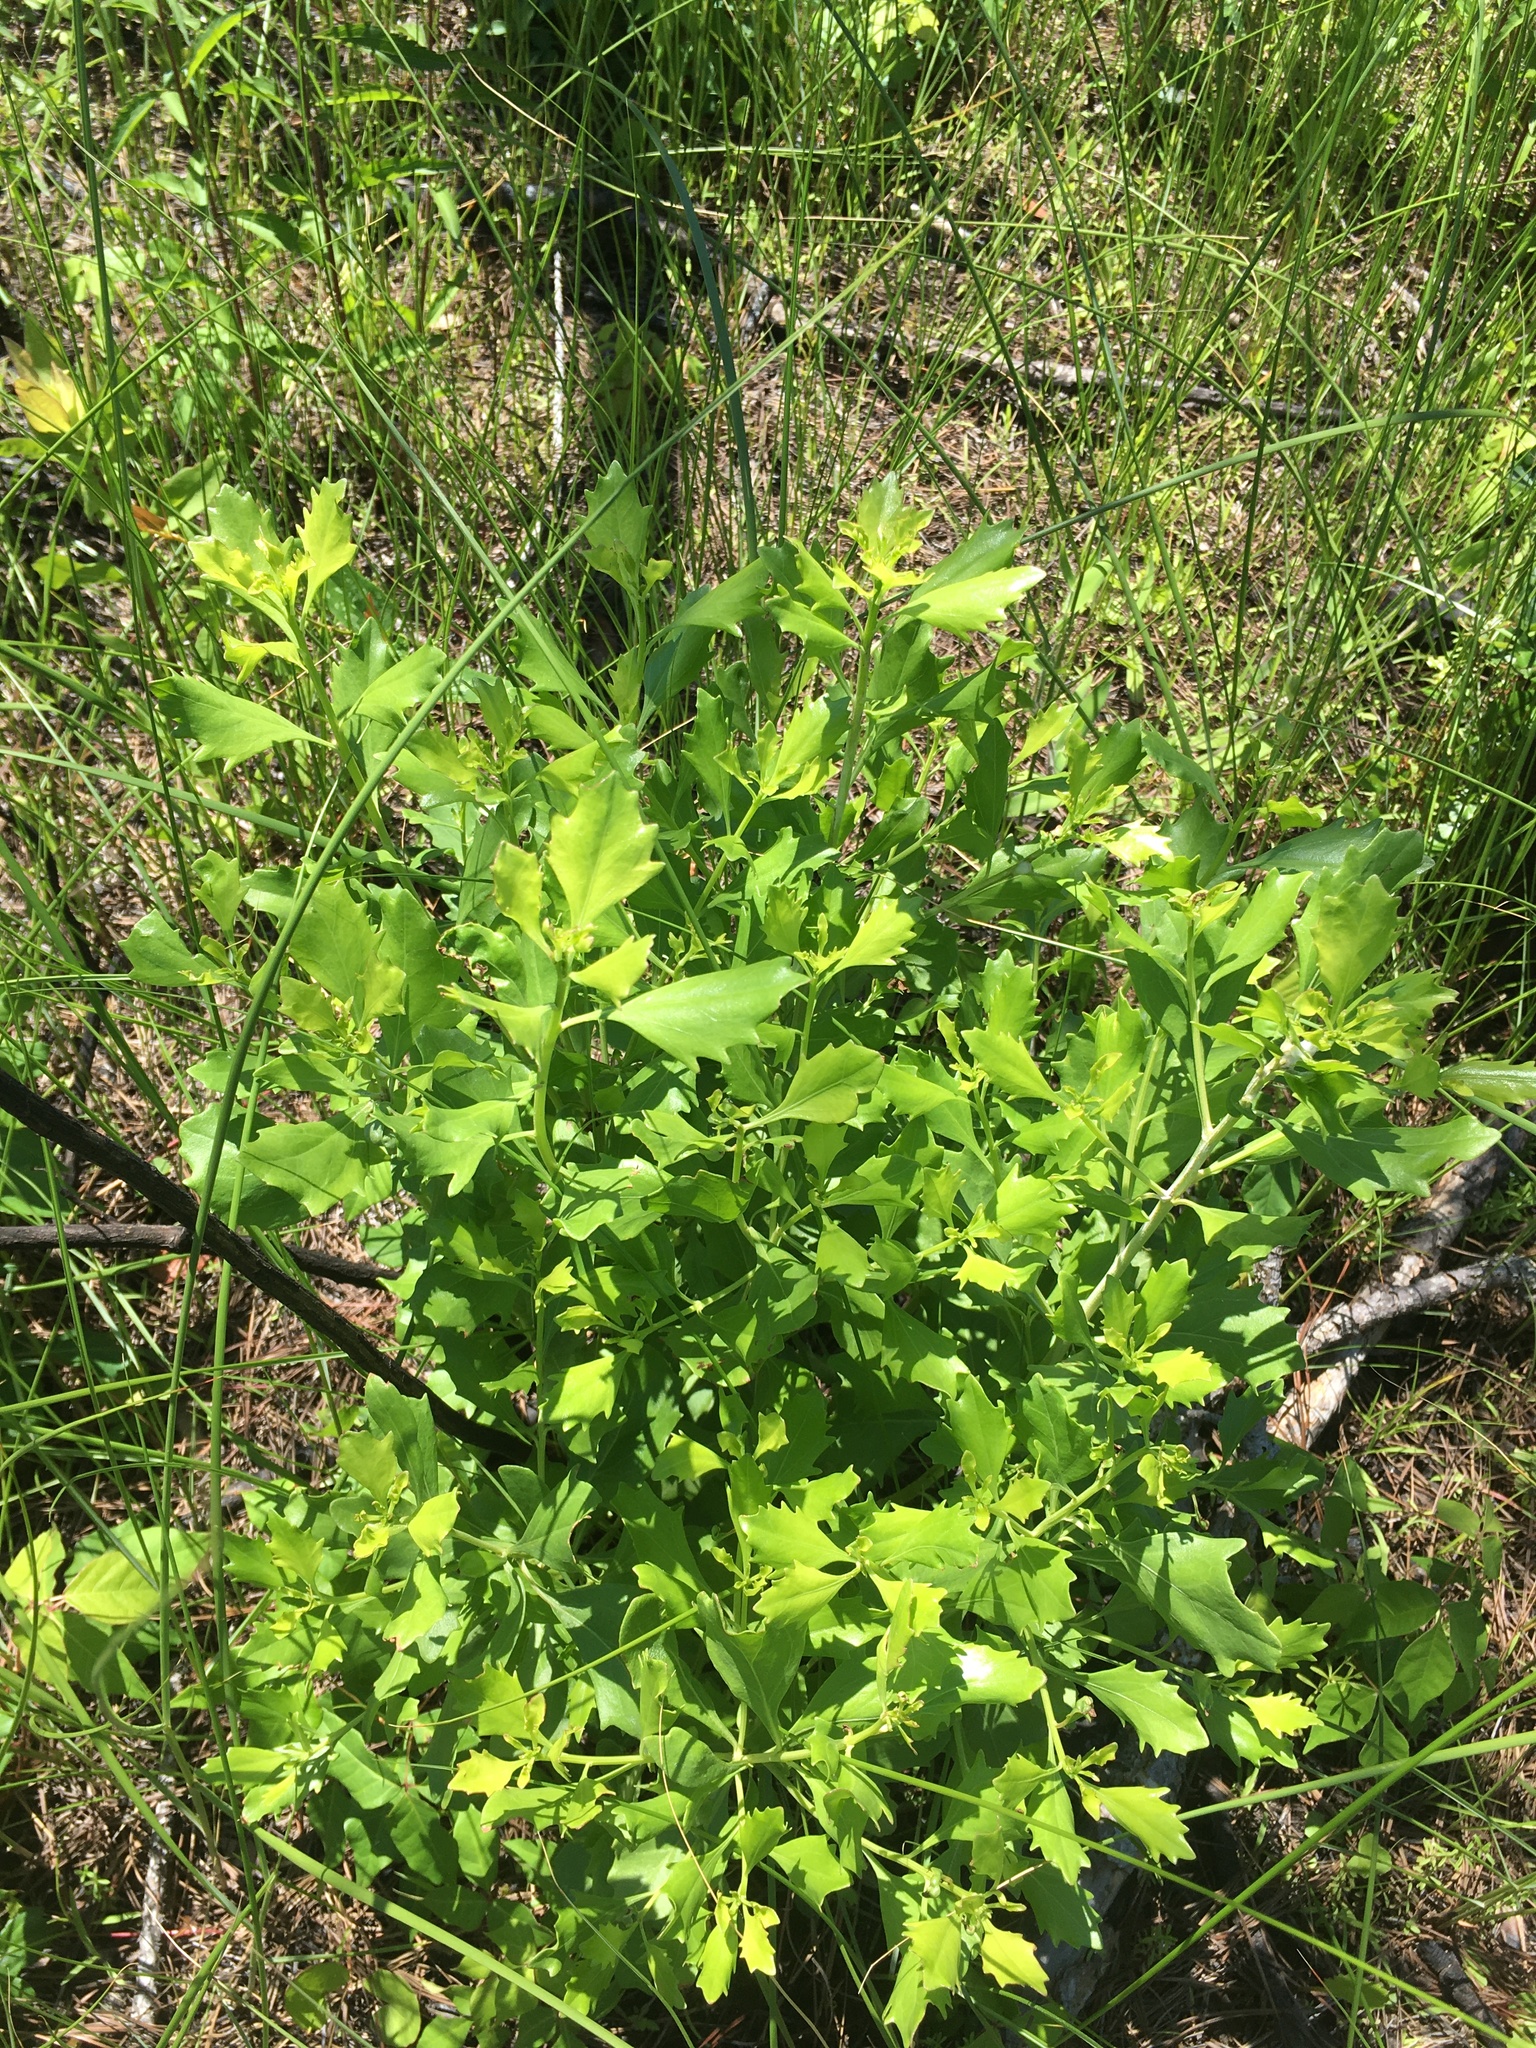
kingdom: Plantae
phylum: Tracheophyta
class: Magnoliopsida
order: Asterales
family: Asteraceae
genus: Baccharis
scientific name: Baccharis halimifolia
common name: Eastern baccharis
